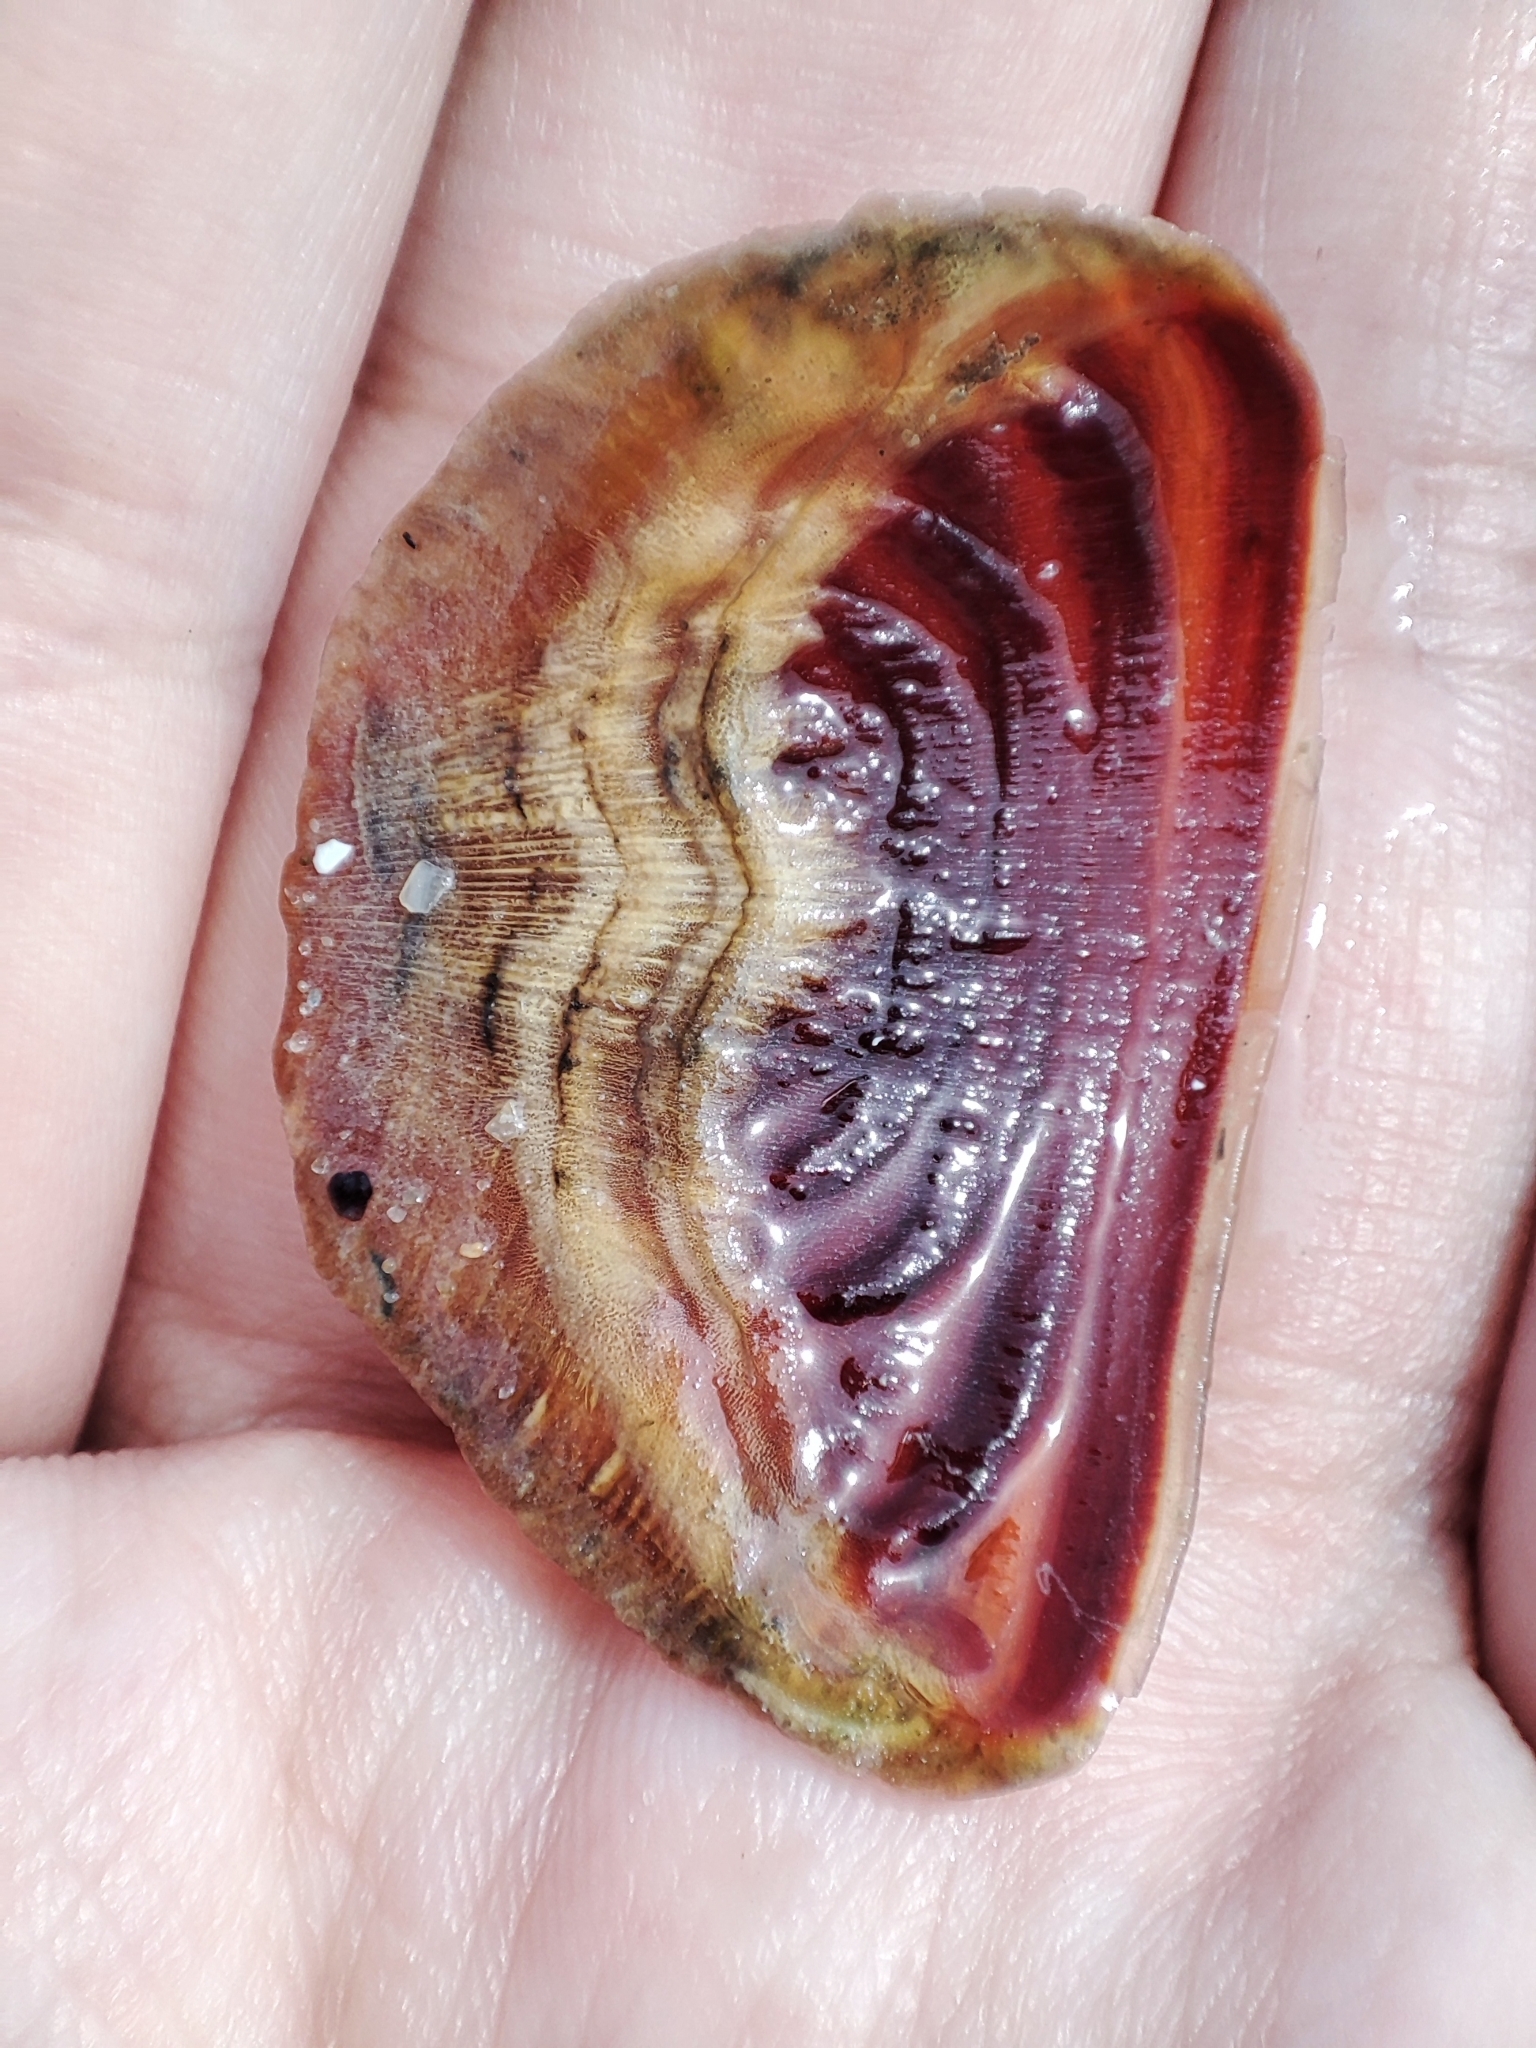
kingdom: Animalia
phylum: Mollusca
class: Gastropoda
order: Neogastropoda
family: Muricidae
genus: Rapana
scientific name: Rapana venosa
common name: Veined rapa whelk
